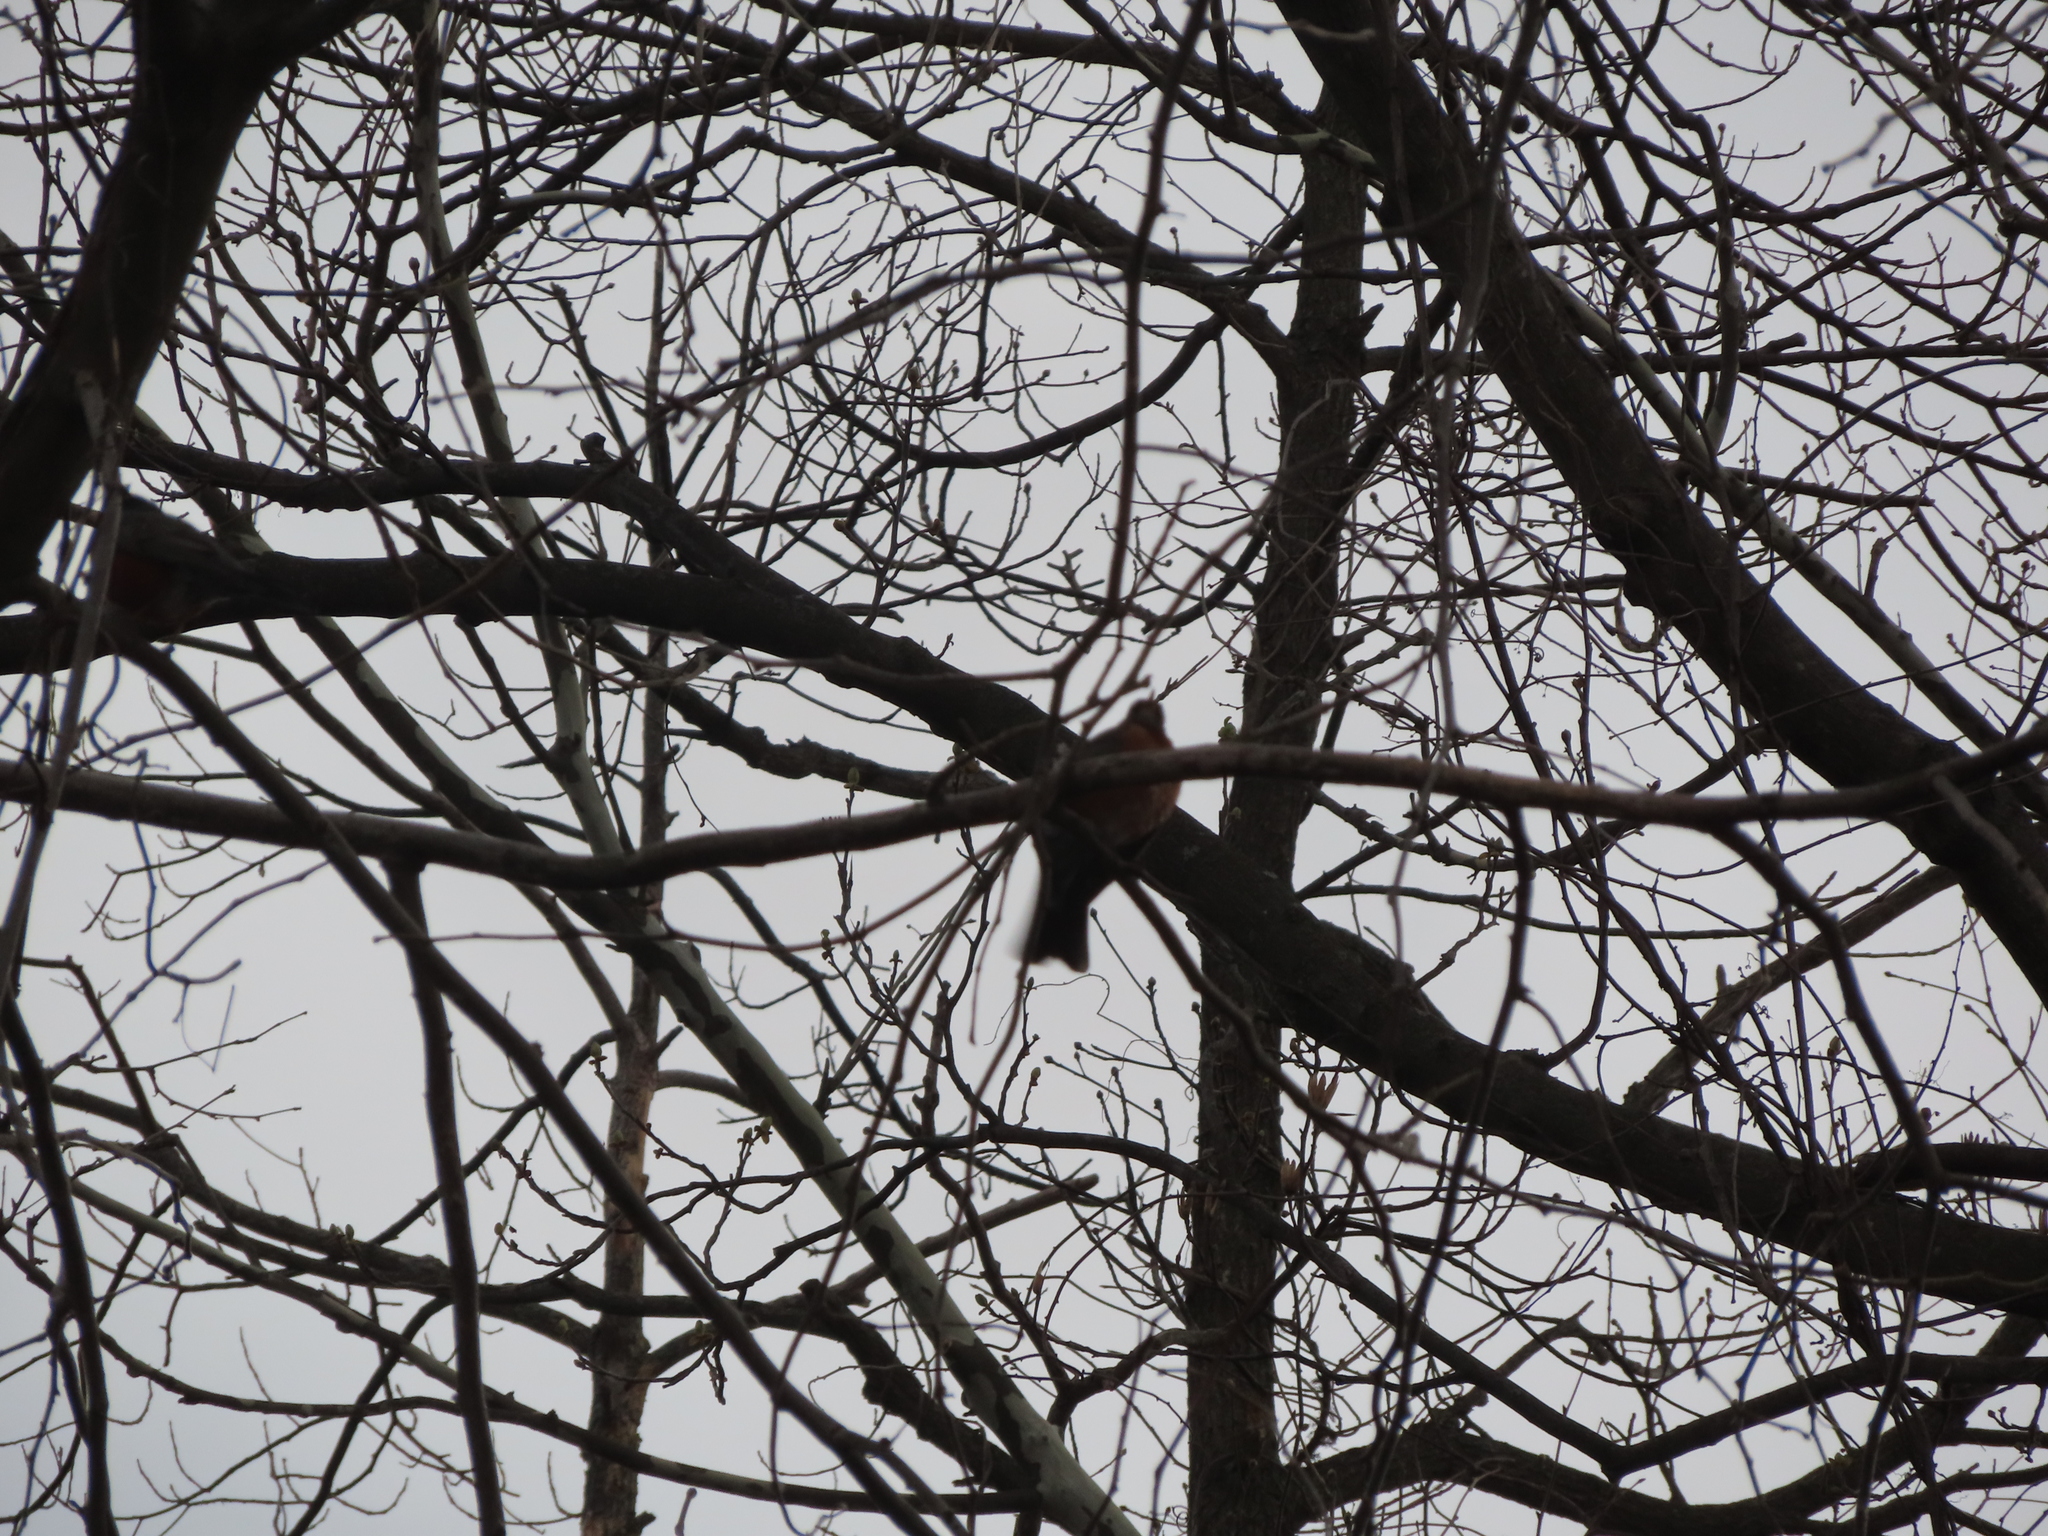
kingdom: Animalia
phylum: Chordata
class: Aves
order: Passeriformes
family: Turdidae
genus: Turdus
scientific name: Turdus migratorius
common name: American robin
